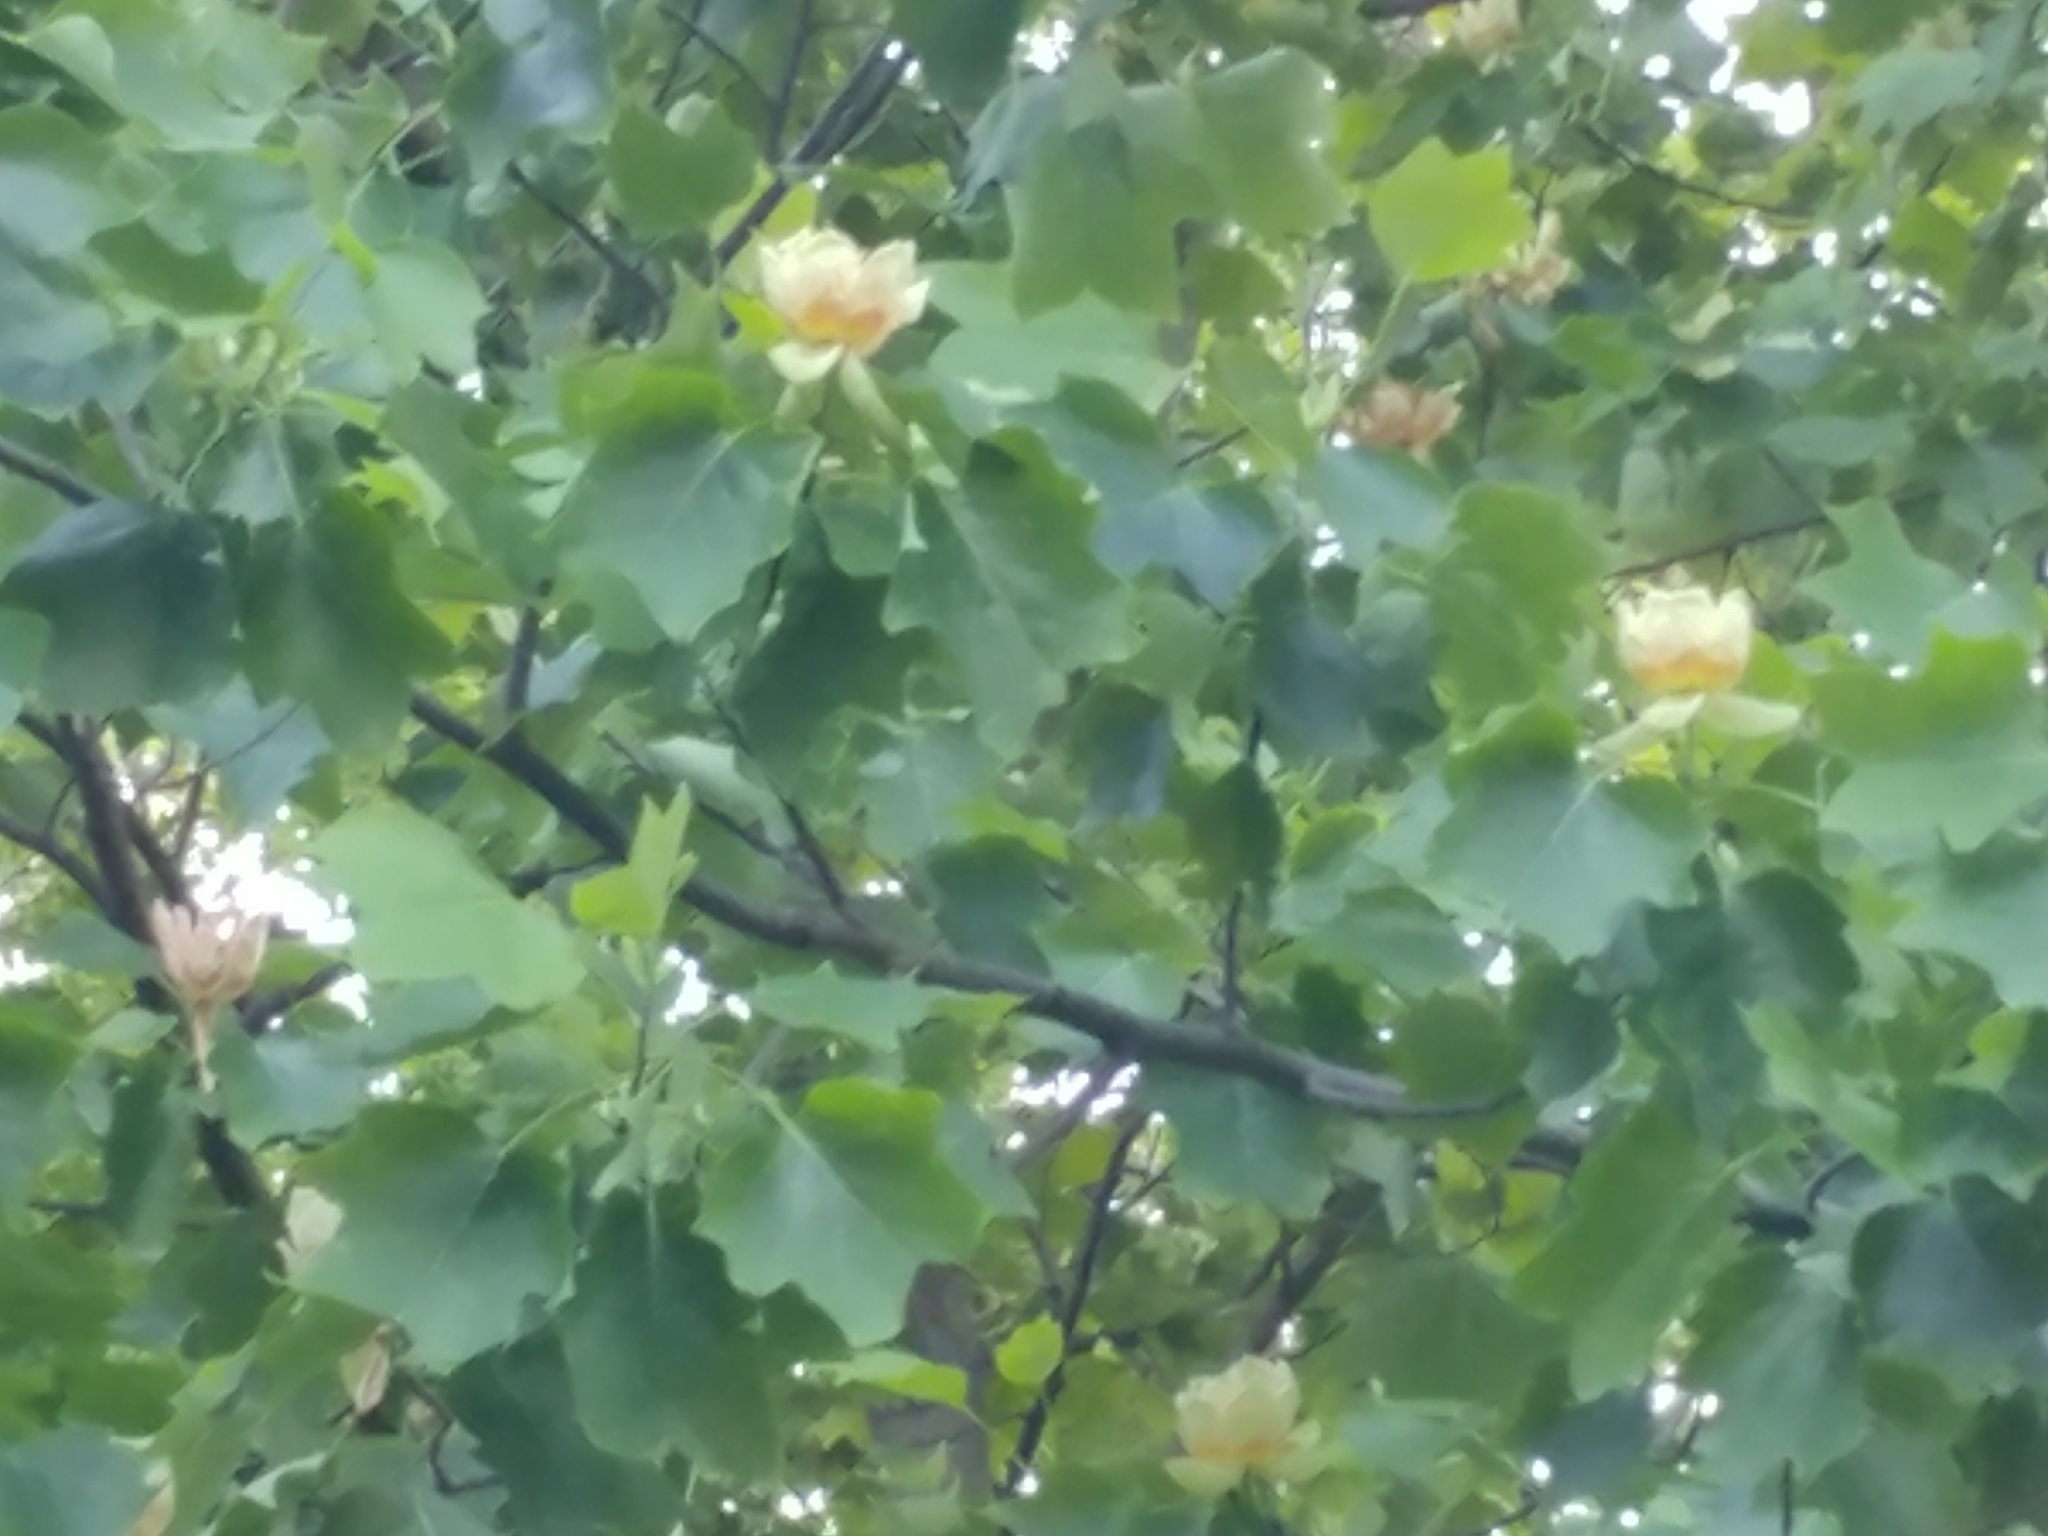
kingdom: Plantae
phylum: Tracheophyta
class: Magnoliopsida
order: Magnoliales
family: Magnoliaceae
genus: Liriodendron
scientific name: Liriodendron tulipifera
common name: Tulip tree
